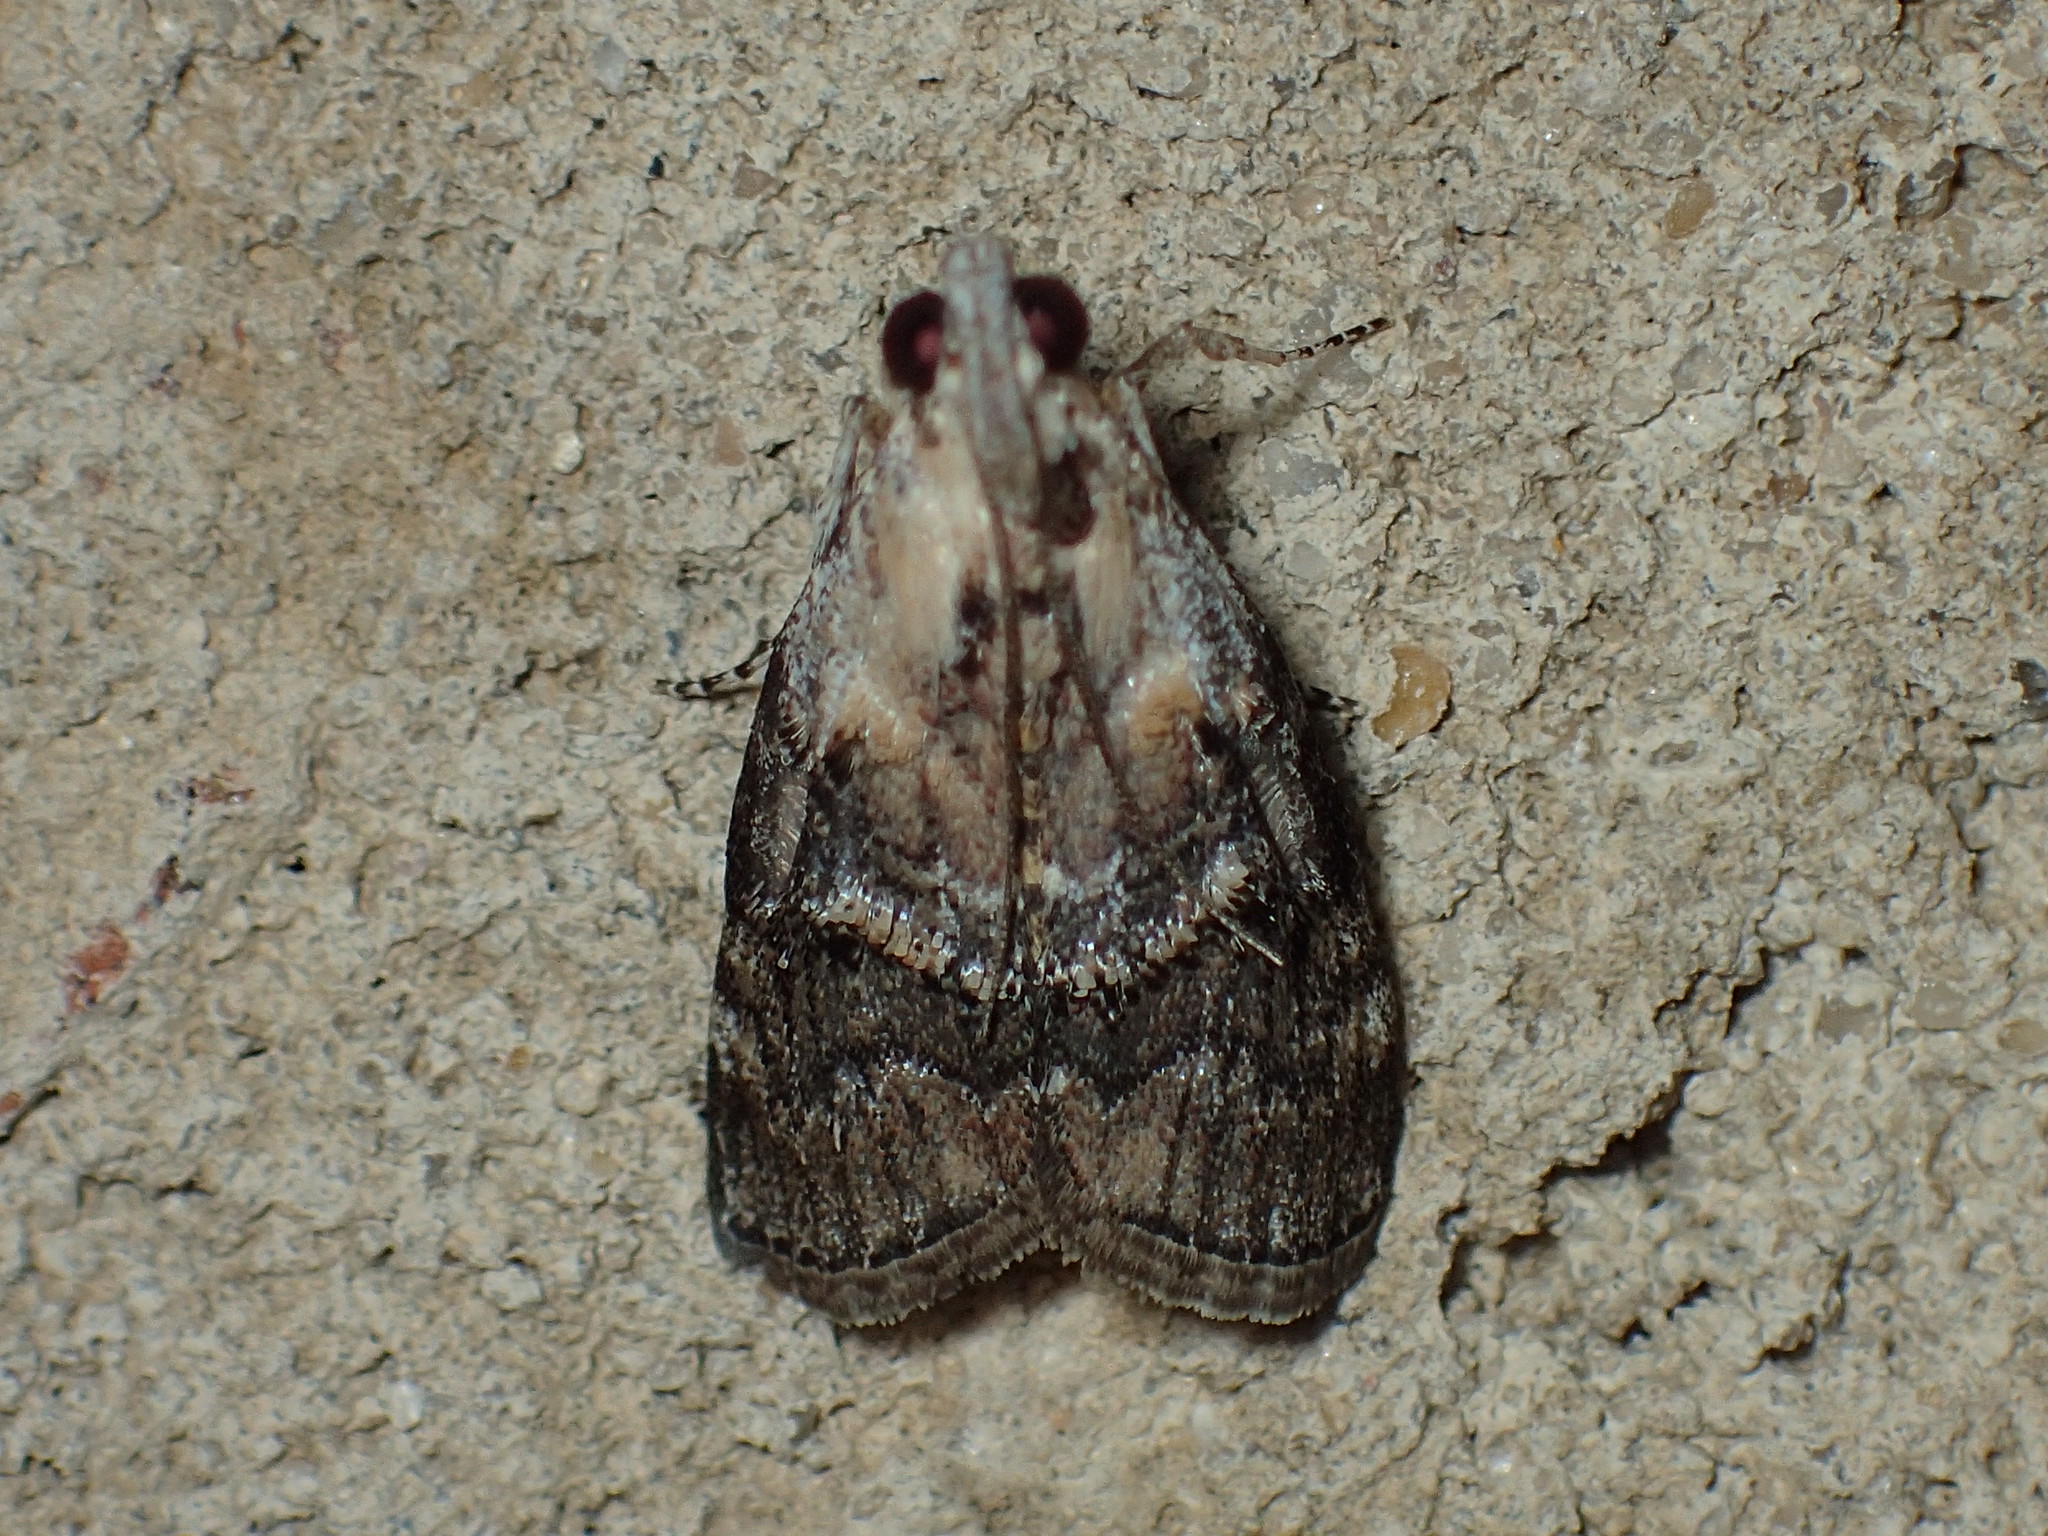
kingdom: Animalia
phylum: Arthropoda
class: Insecta
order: Lepidoptera
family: Pyralidae
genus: Pococera
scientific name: Pococera expandens
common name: Striped oak webworm moth
